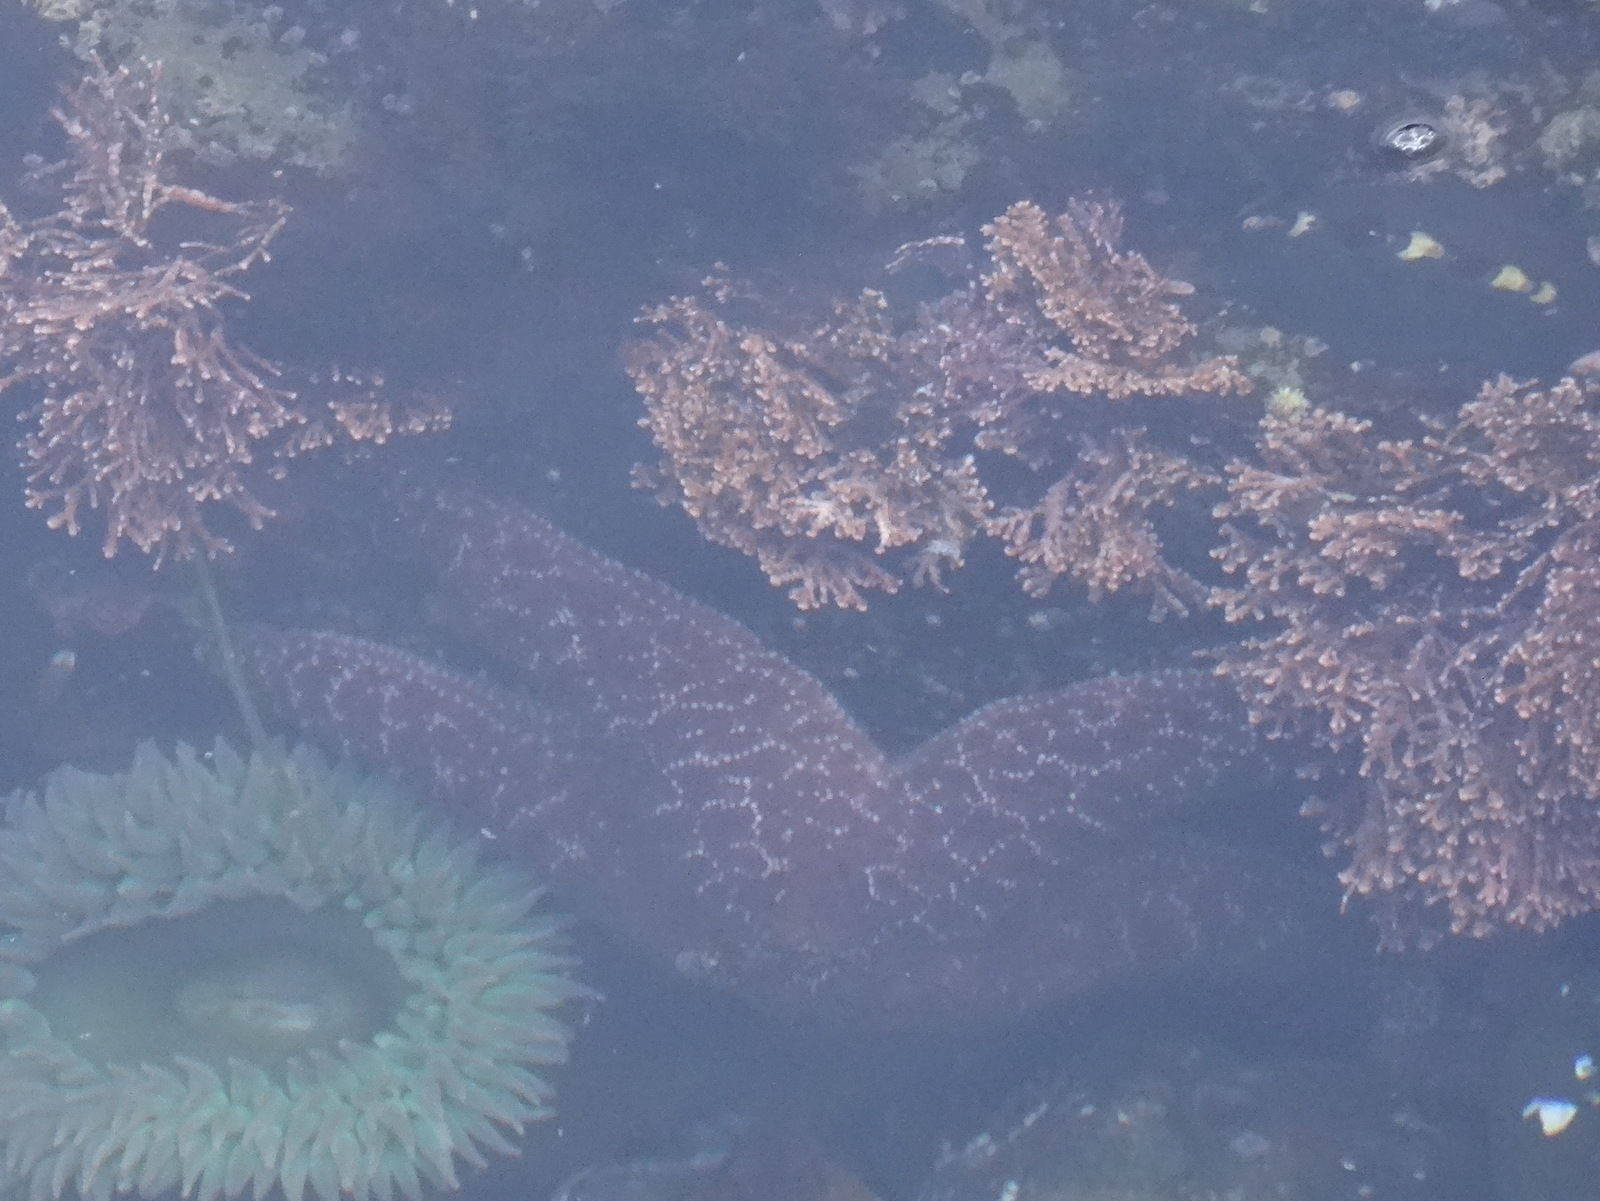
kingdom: Animalia
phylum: Echinodermata
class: Asteroidea
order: Forcipulatida
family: Asteriidae
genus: Pisaster
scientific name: Pisaster ochraceus
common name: Ochre stars
